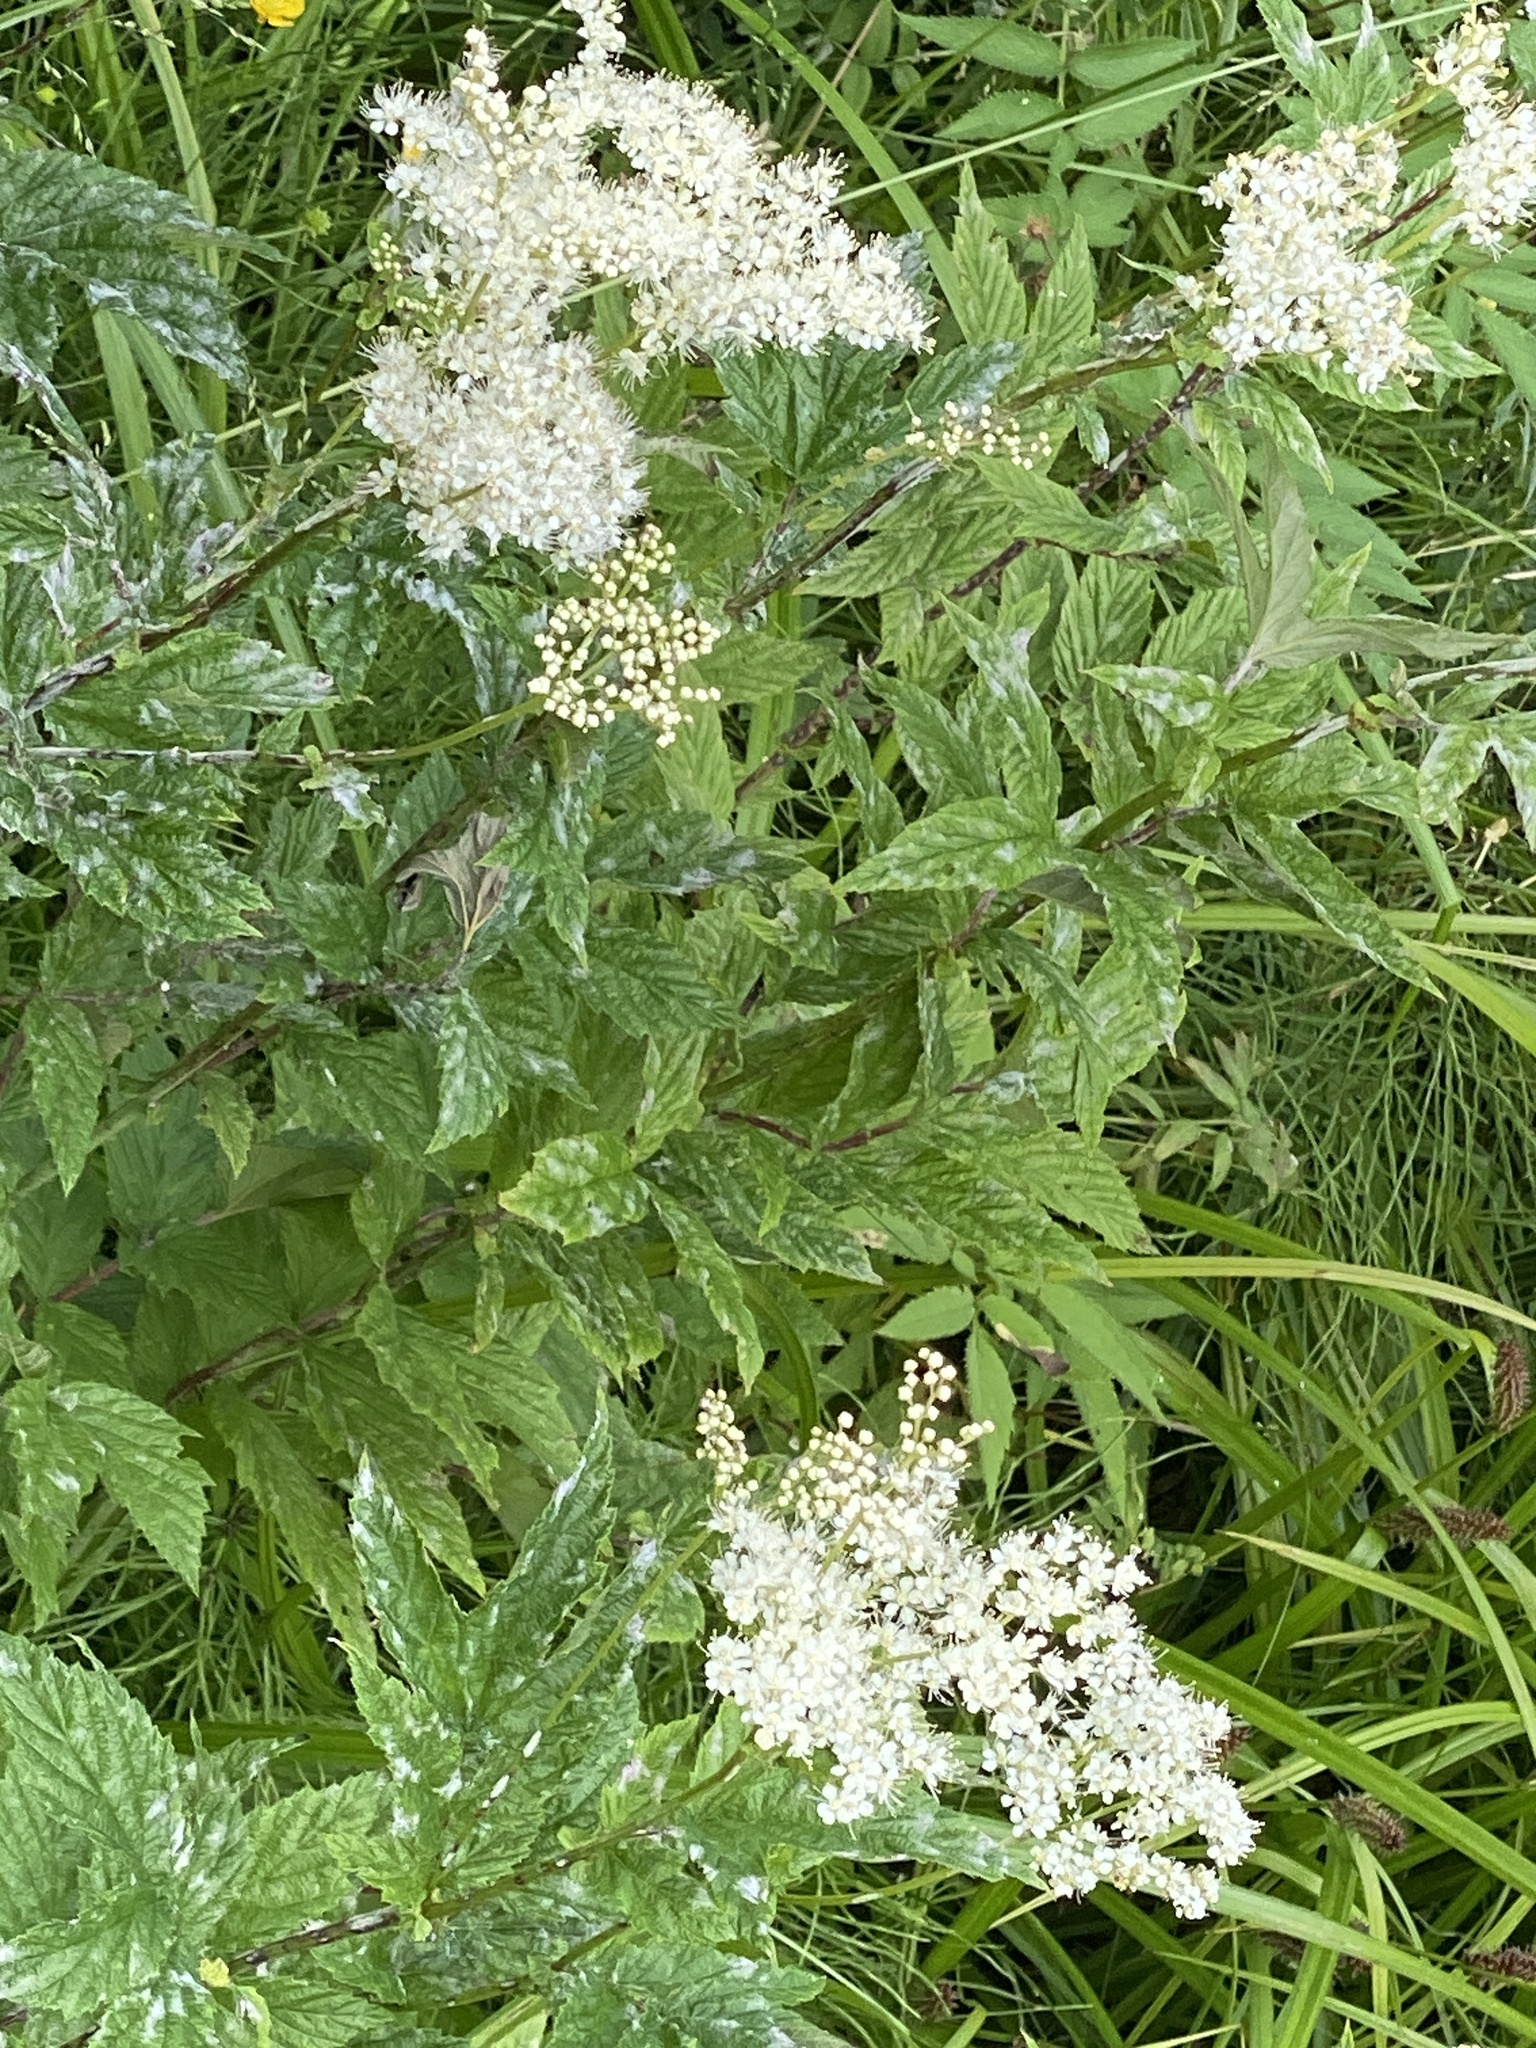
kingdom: Plantae
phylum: Tracheophyta
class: Magnoliopsida
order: Rosales
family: Rosaceae
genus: Filipendula
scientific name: Filipendula ulmaria
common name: Meadowsweet
